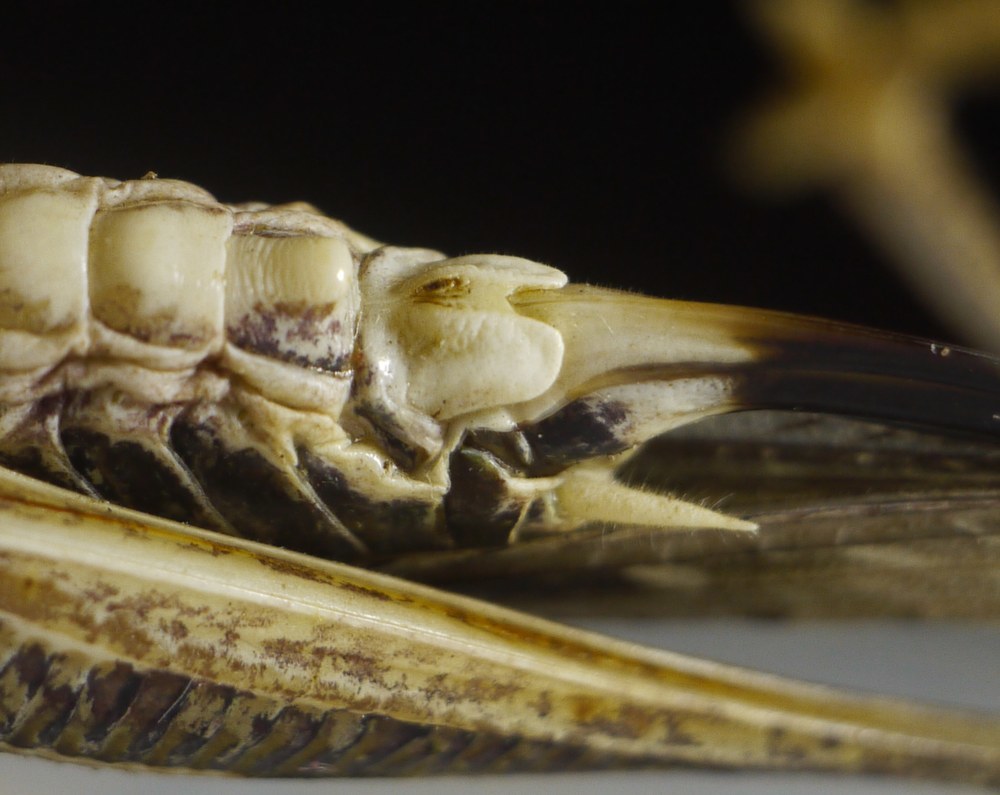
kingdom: Animalia
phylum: Arthropoda
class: Insecta
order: Orthoptera
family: Tettigoniidae
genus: Montana
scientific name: Montana stricta
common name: Italian bush-cricket
